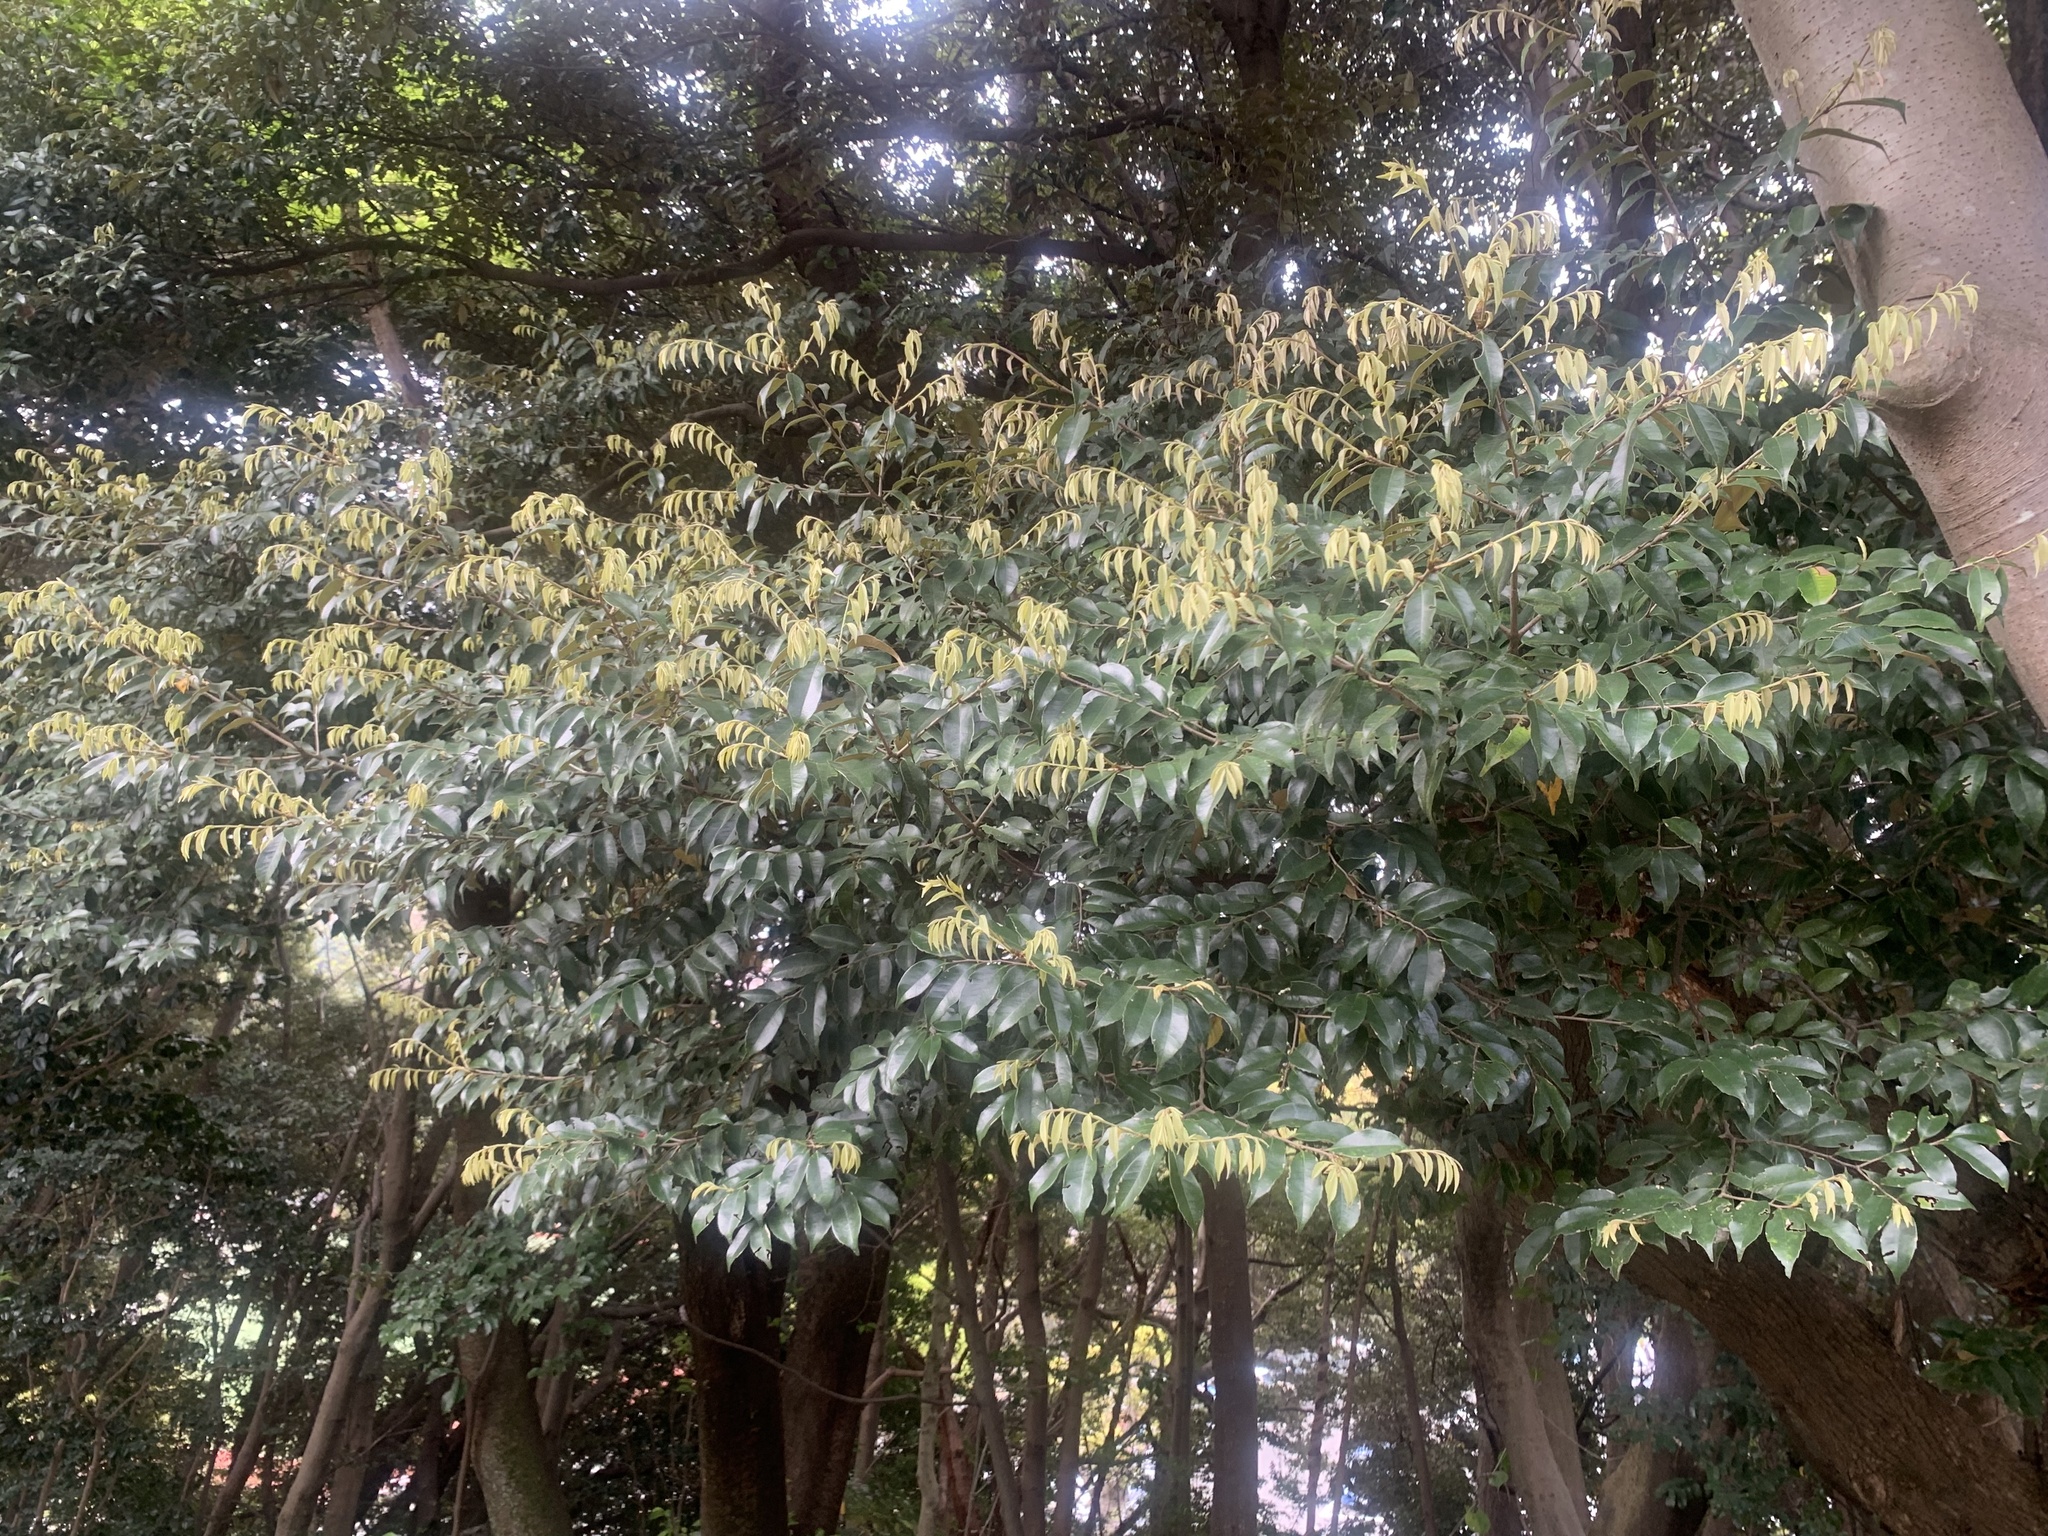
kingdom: Plantae
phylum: Tracheophyta
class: Magnoliopsida
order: Fagales
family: Fagaceae
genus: Castanopsis
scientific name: Castanopsis sieboldii
